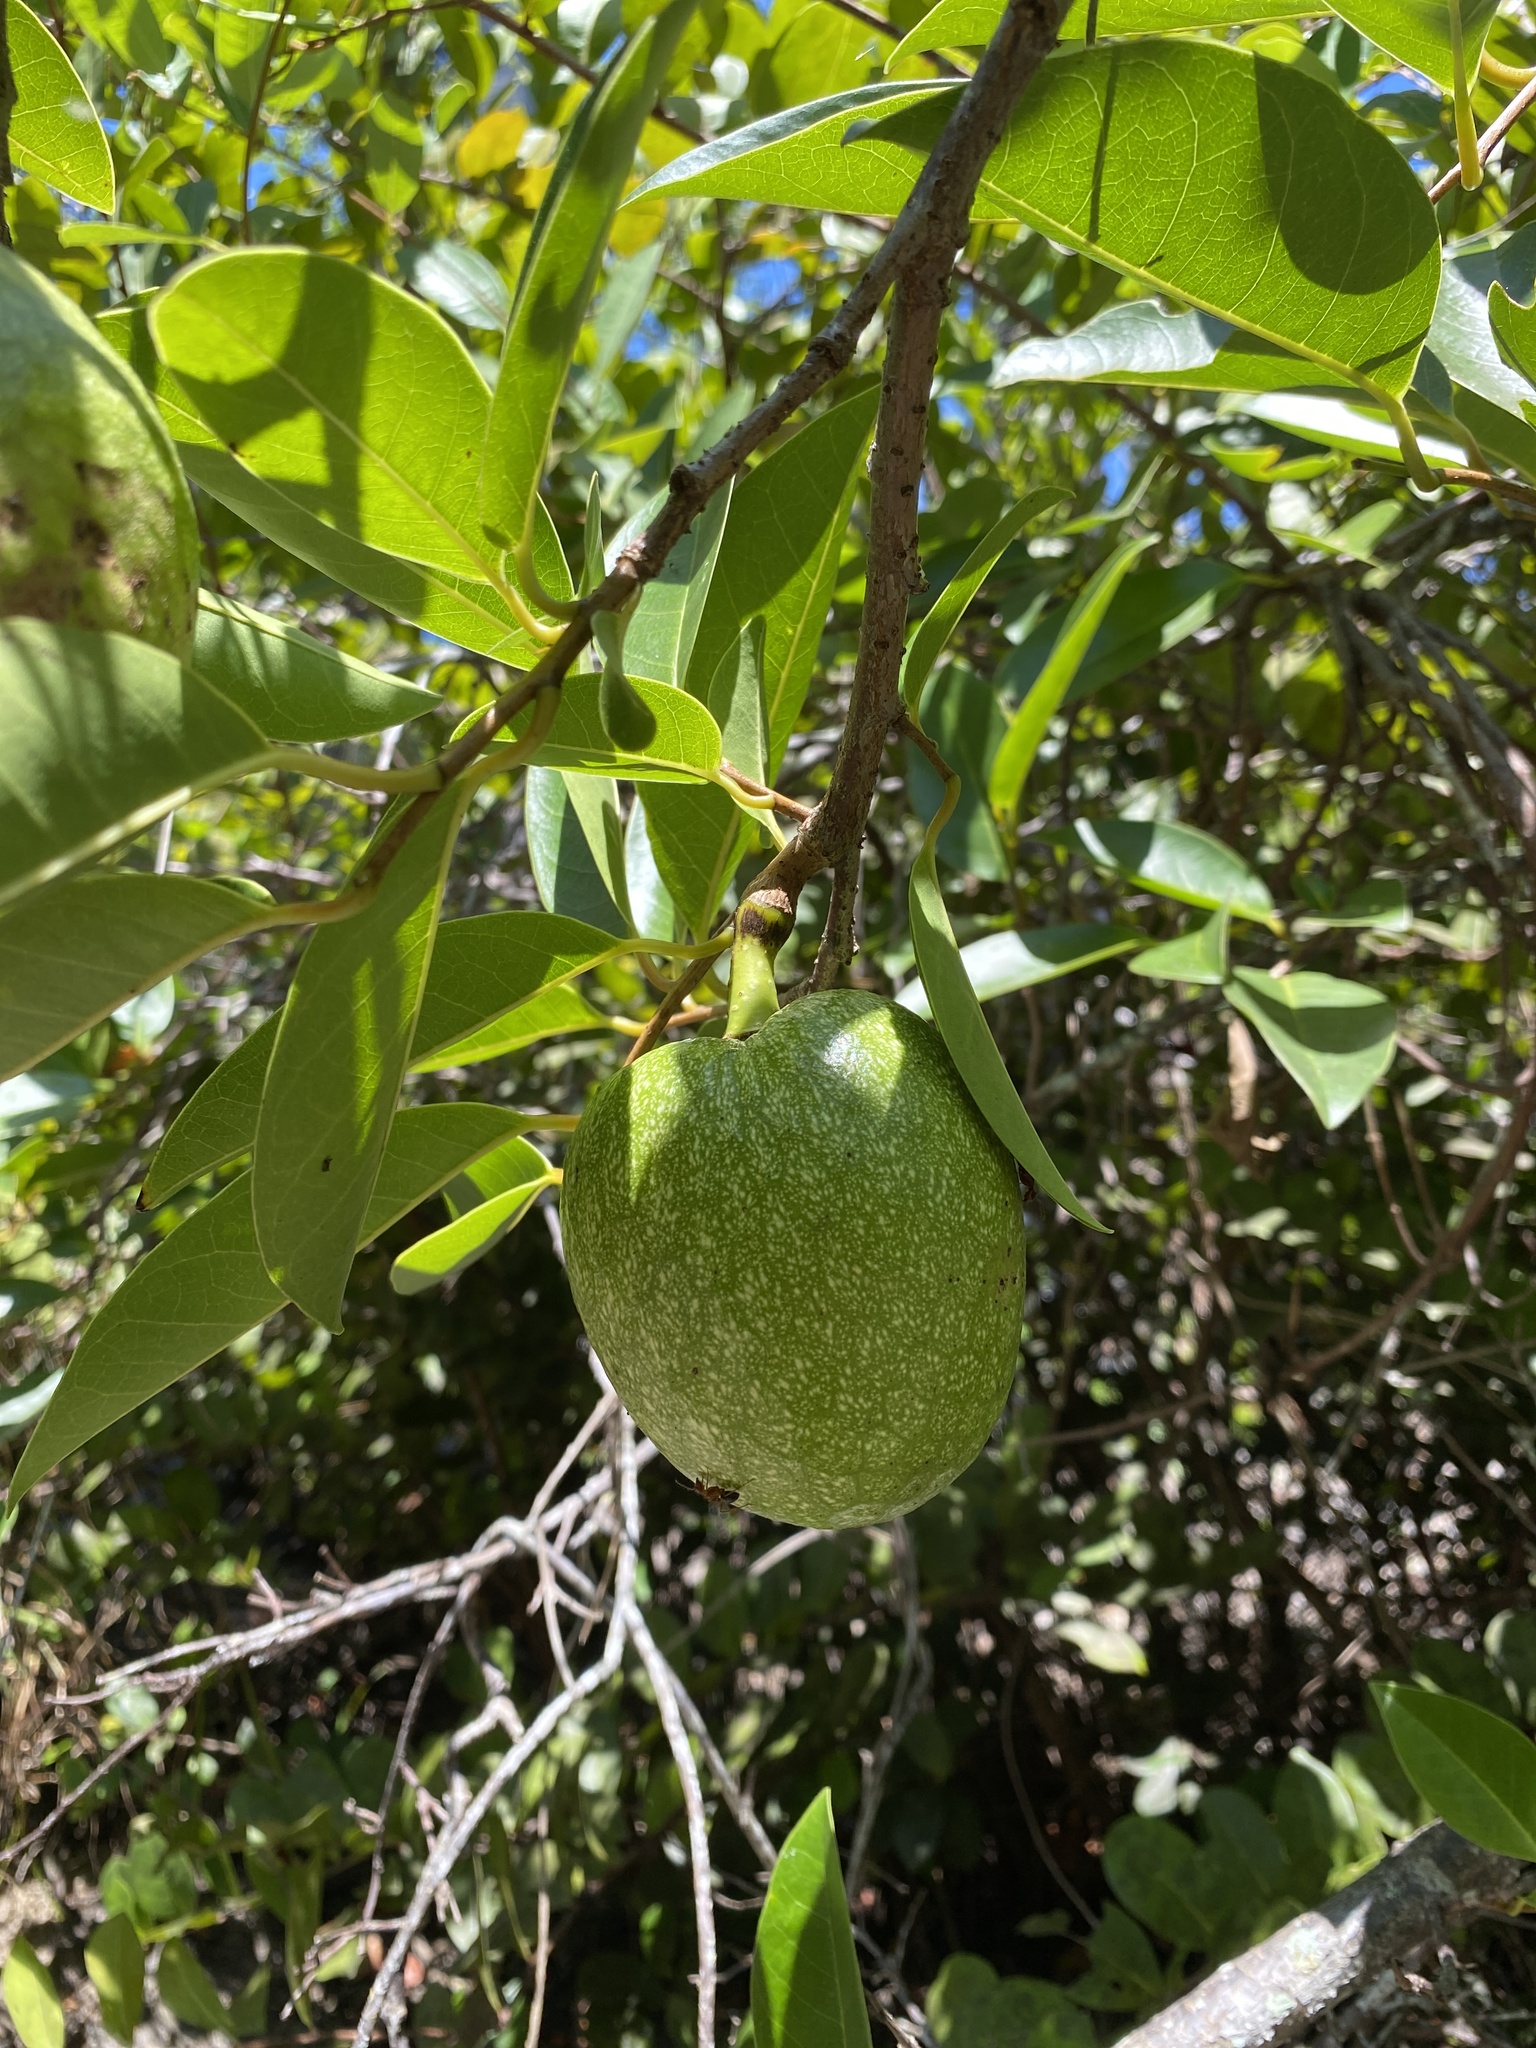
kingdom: Plantae
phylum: Tracheophyta
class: Magnoliopsida
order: Magnoliales
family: Annonaceae
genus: Annona
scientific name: Annona glabra
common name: Monkey apple
